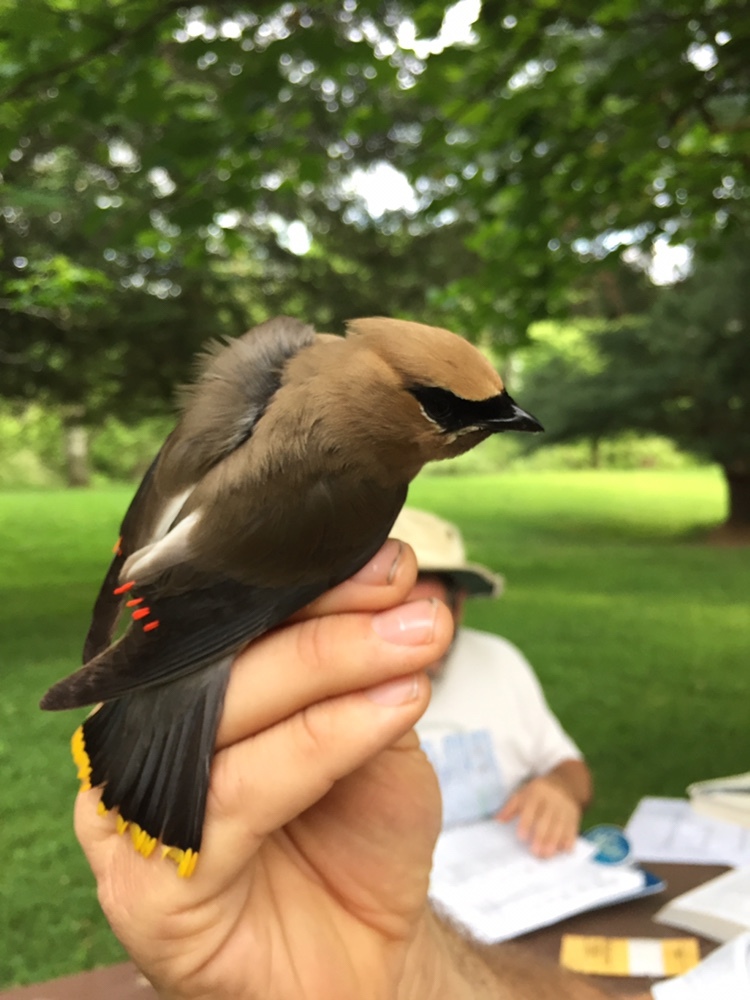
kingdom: Animalia
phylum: Chordata
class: Aves
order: Passeriformes
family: Bombycillidae
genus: Bombycilla
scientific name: Bombycilla cedrorum
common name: Cedar waxwing
